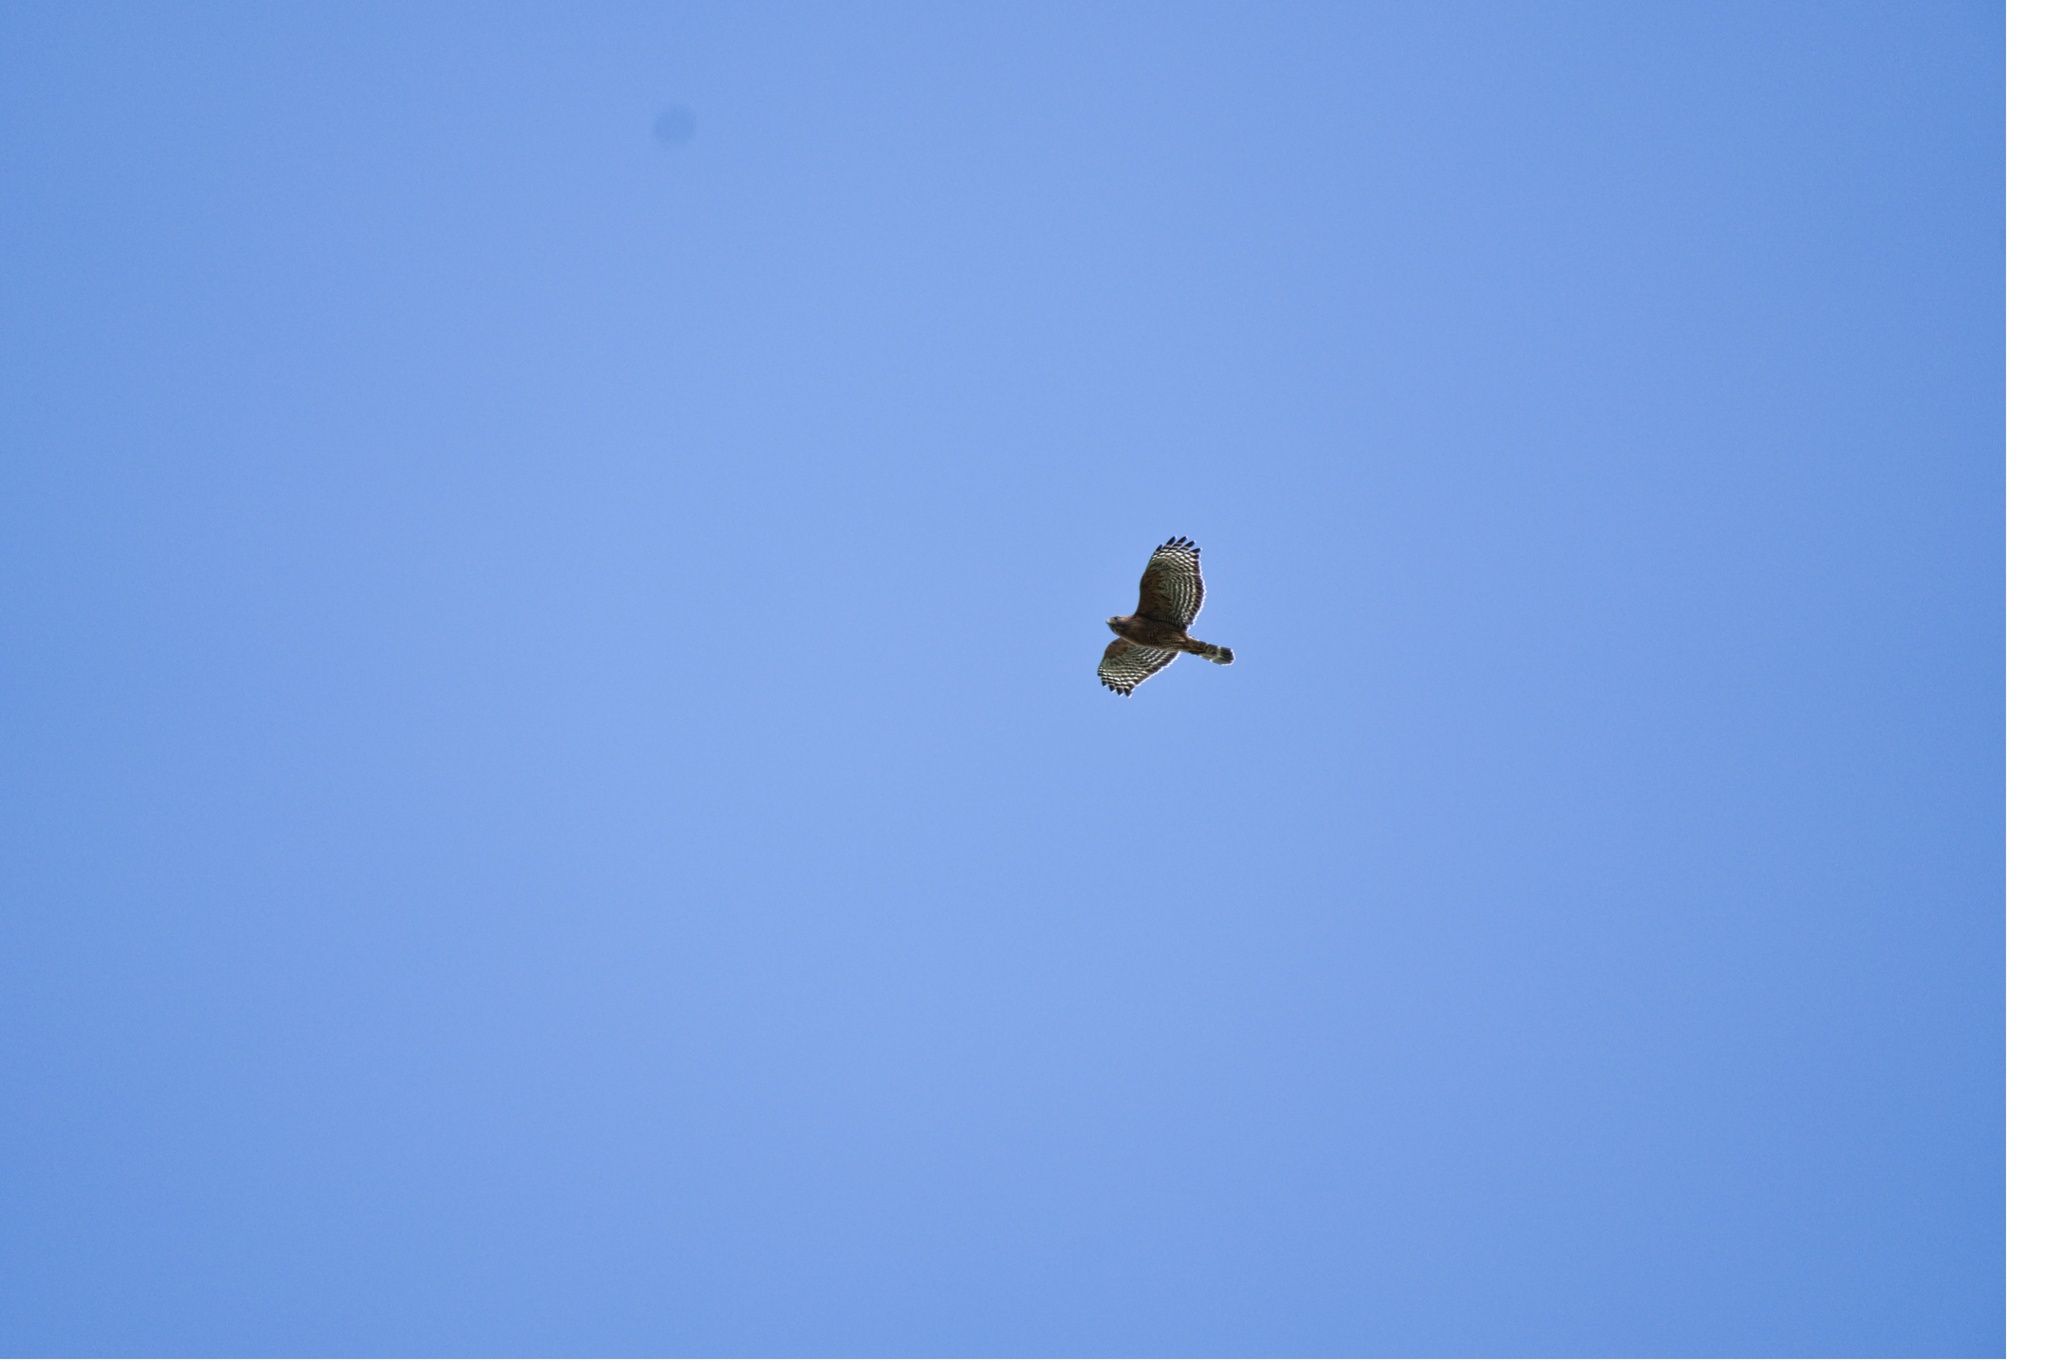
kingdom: Animalia
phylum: Chordata
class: Aves
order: Accipitriformes
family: Accipitridae
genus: Buteo
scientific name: Buteo lineatus
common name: Red-shouldered hawk
